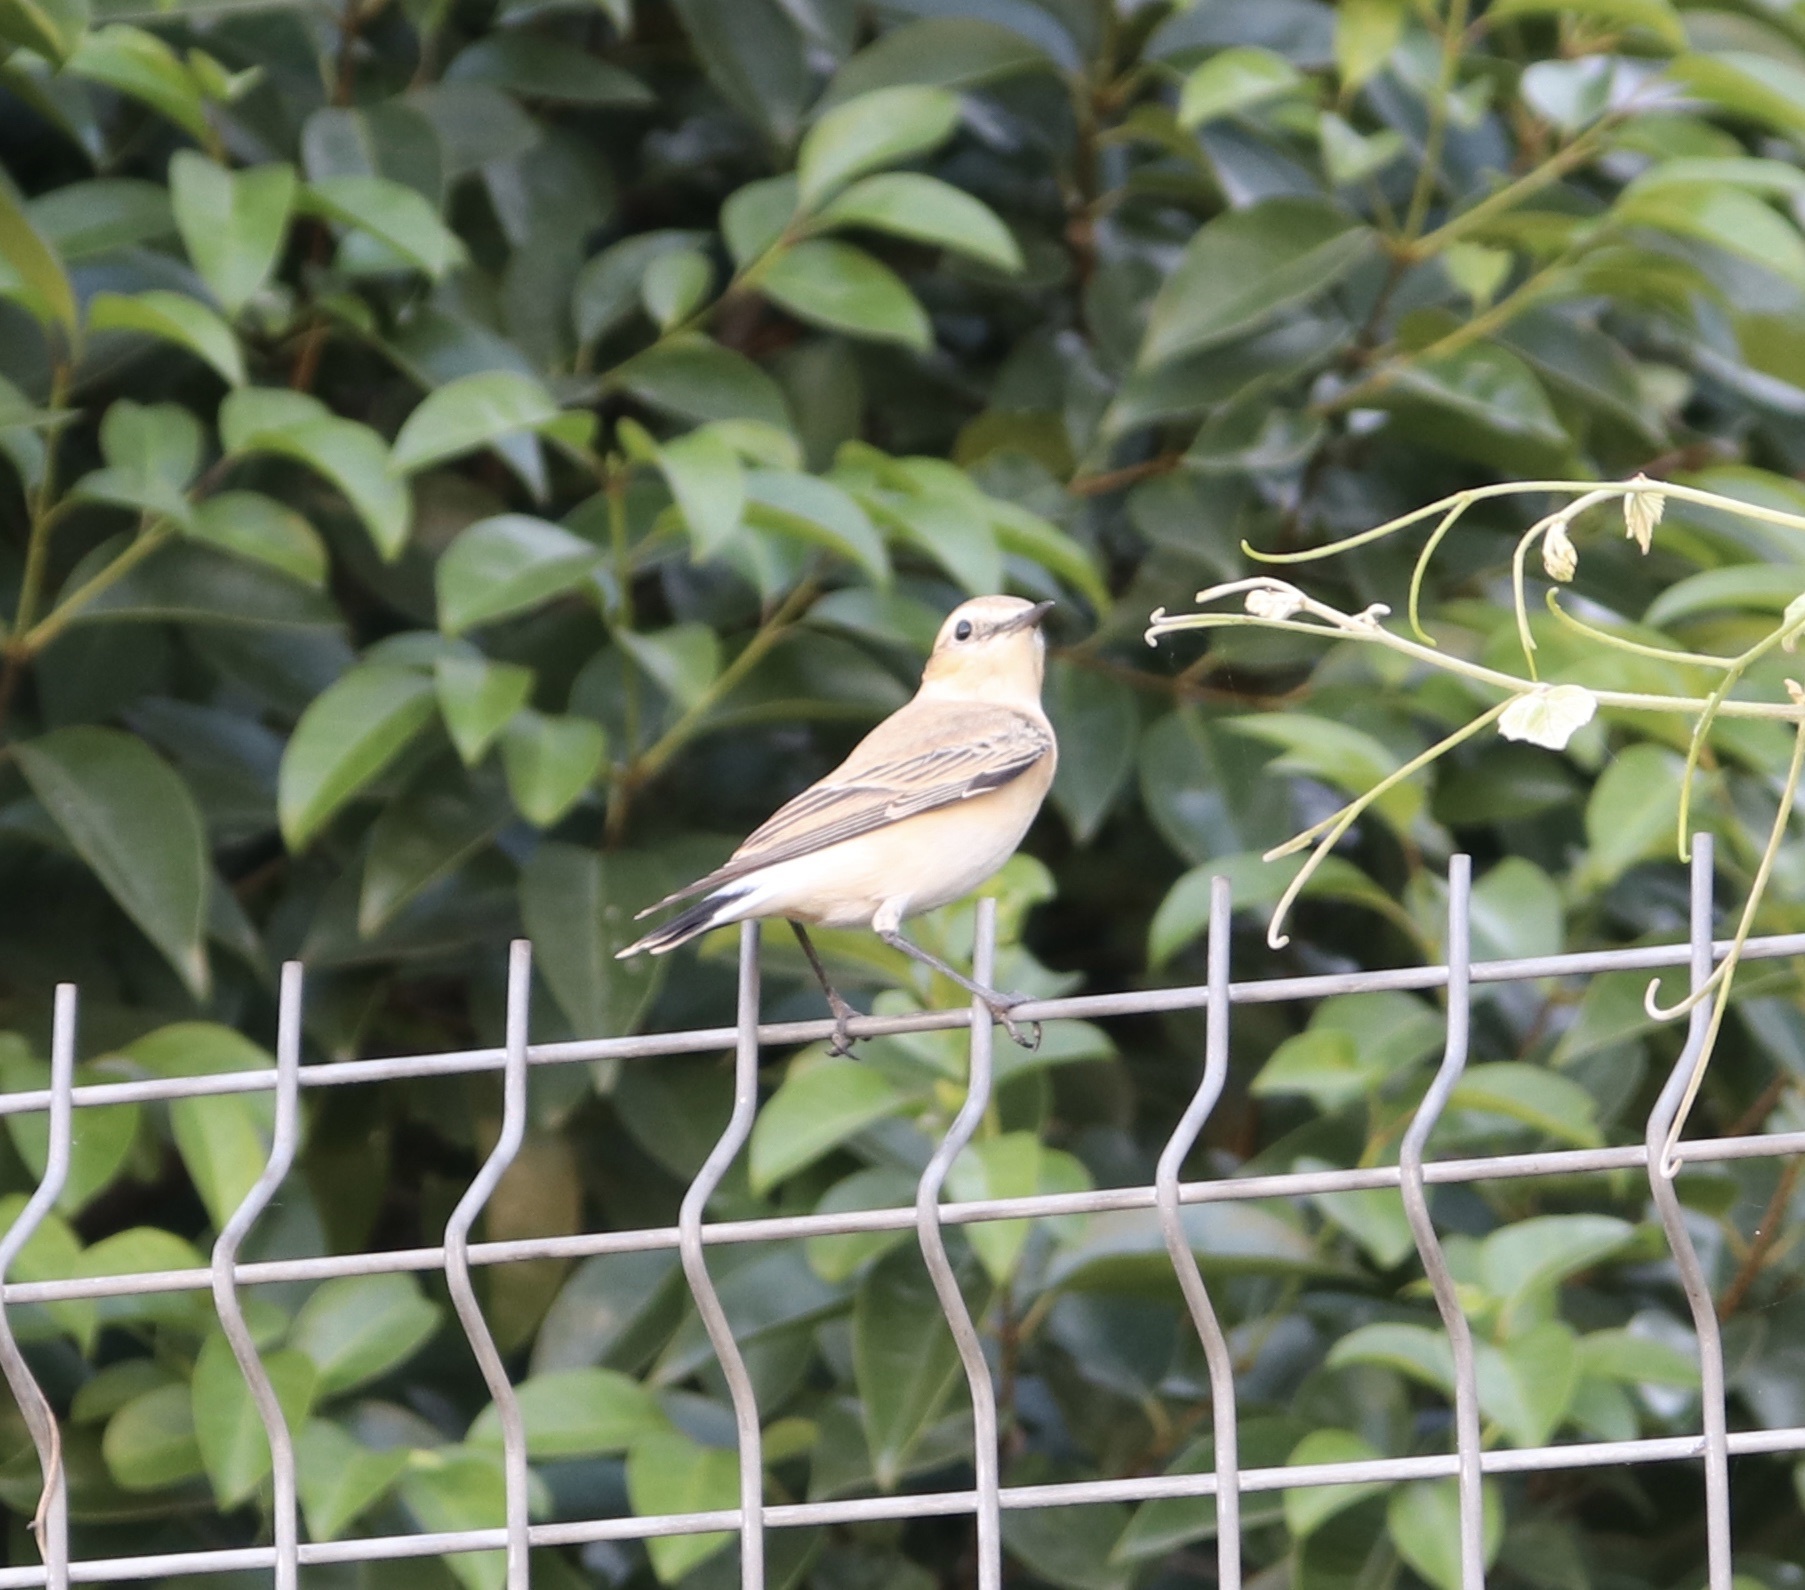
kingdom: Animalia
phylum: Chordata
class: Aves
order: Passeriformes
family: Muscicapidae
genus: Oenanthe
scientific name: Oenanthe oenanthe
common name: Northern wheatear
